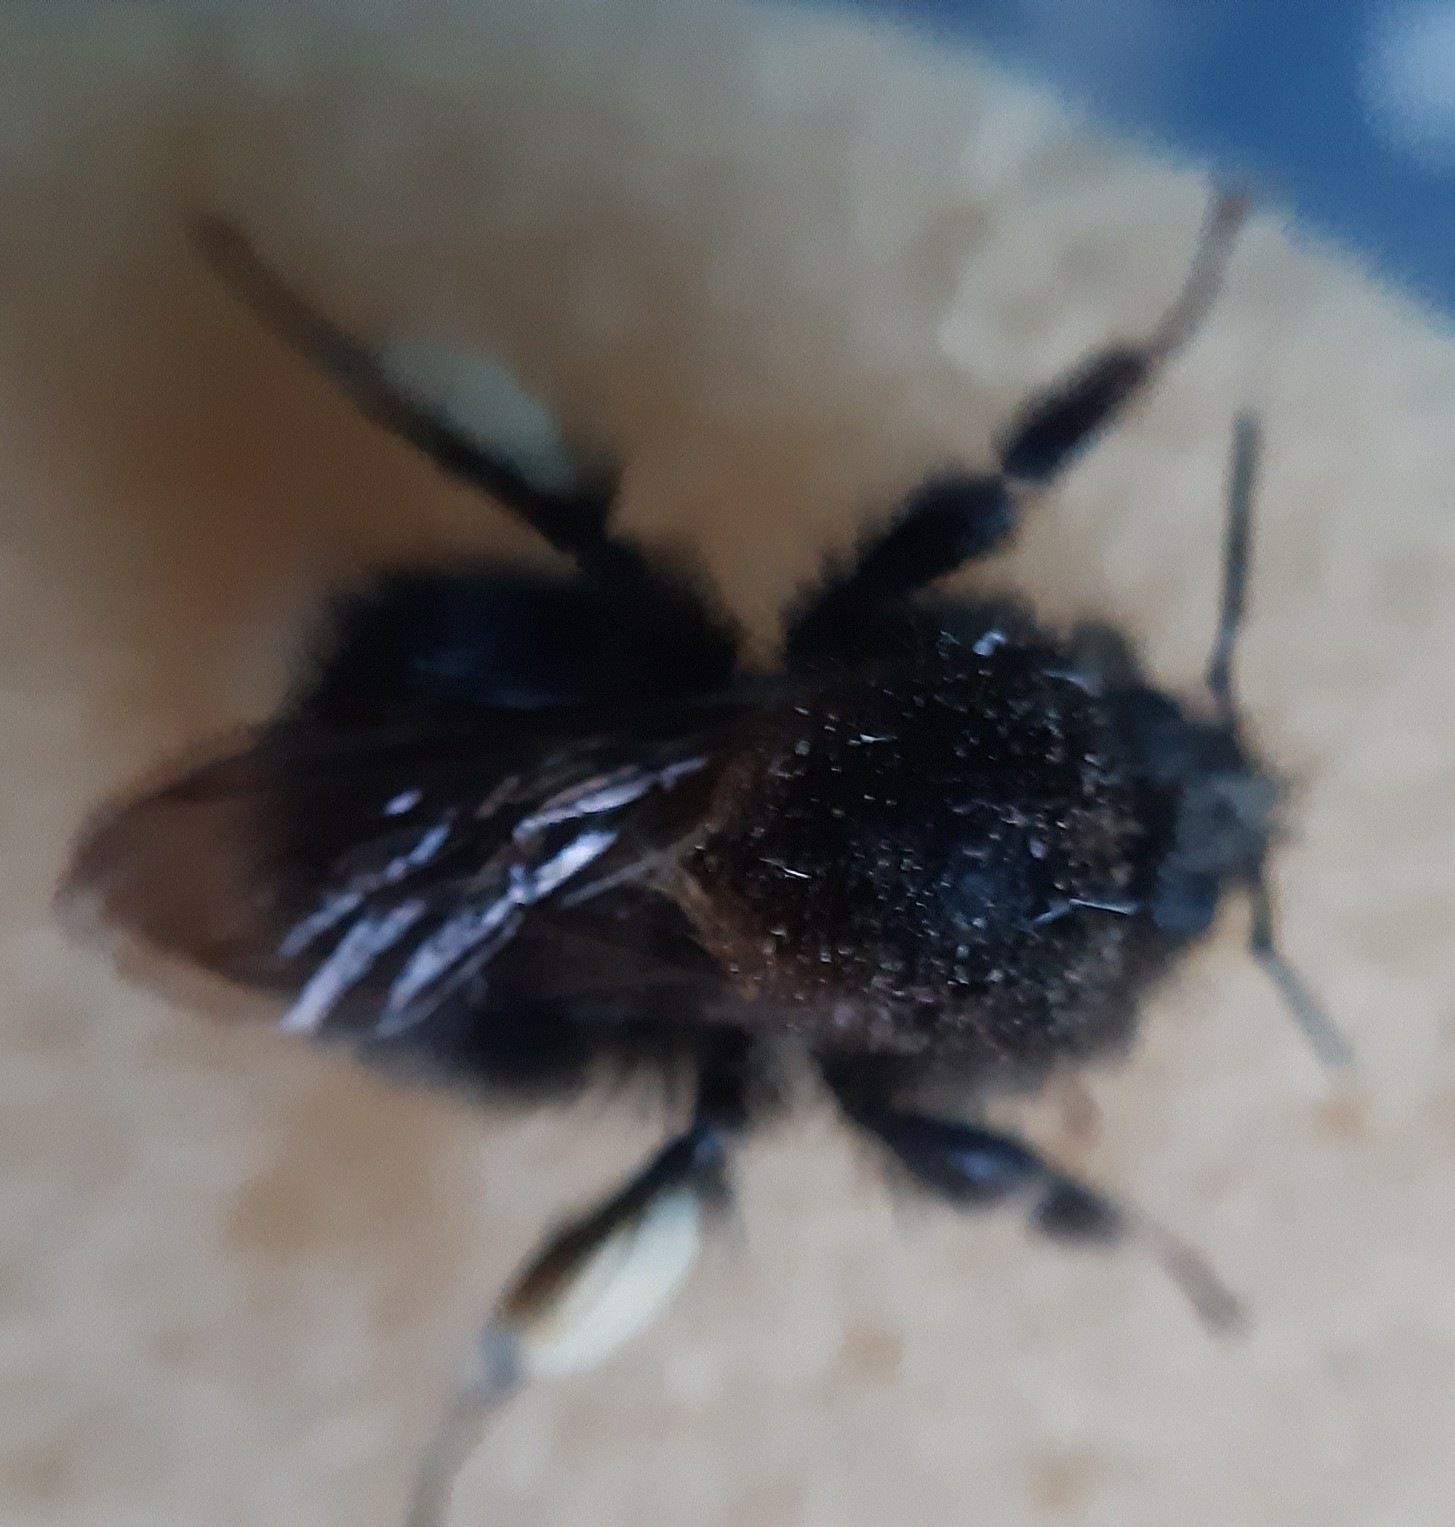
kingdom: Animalia
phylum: Arthropoda
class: Insecta
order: Hymenoptera
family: Apidae
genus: Bombus
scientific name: Bombus hypnorum
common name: New garden bumblebee
